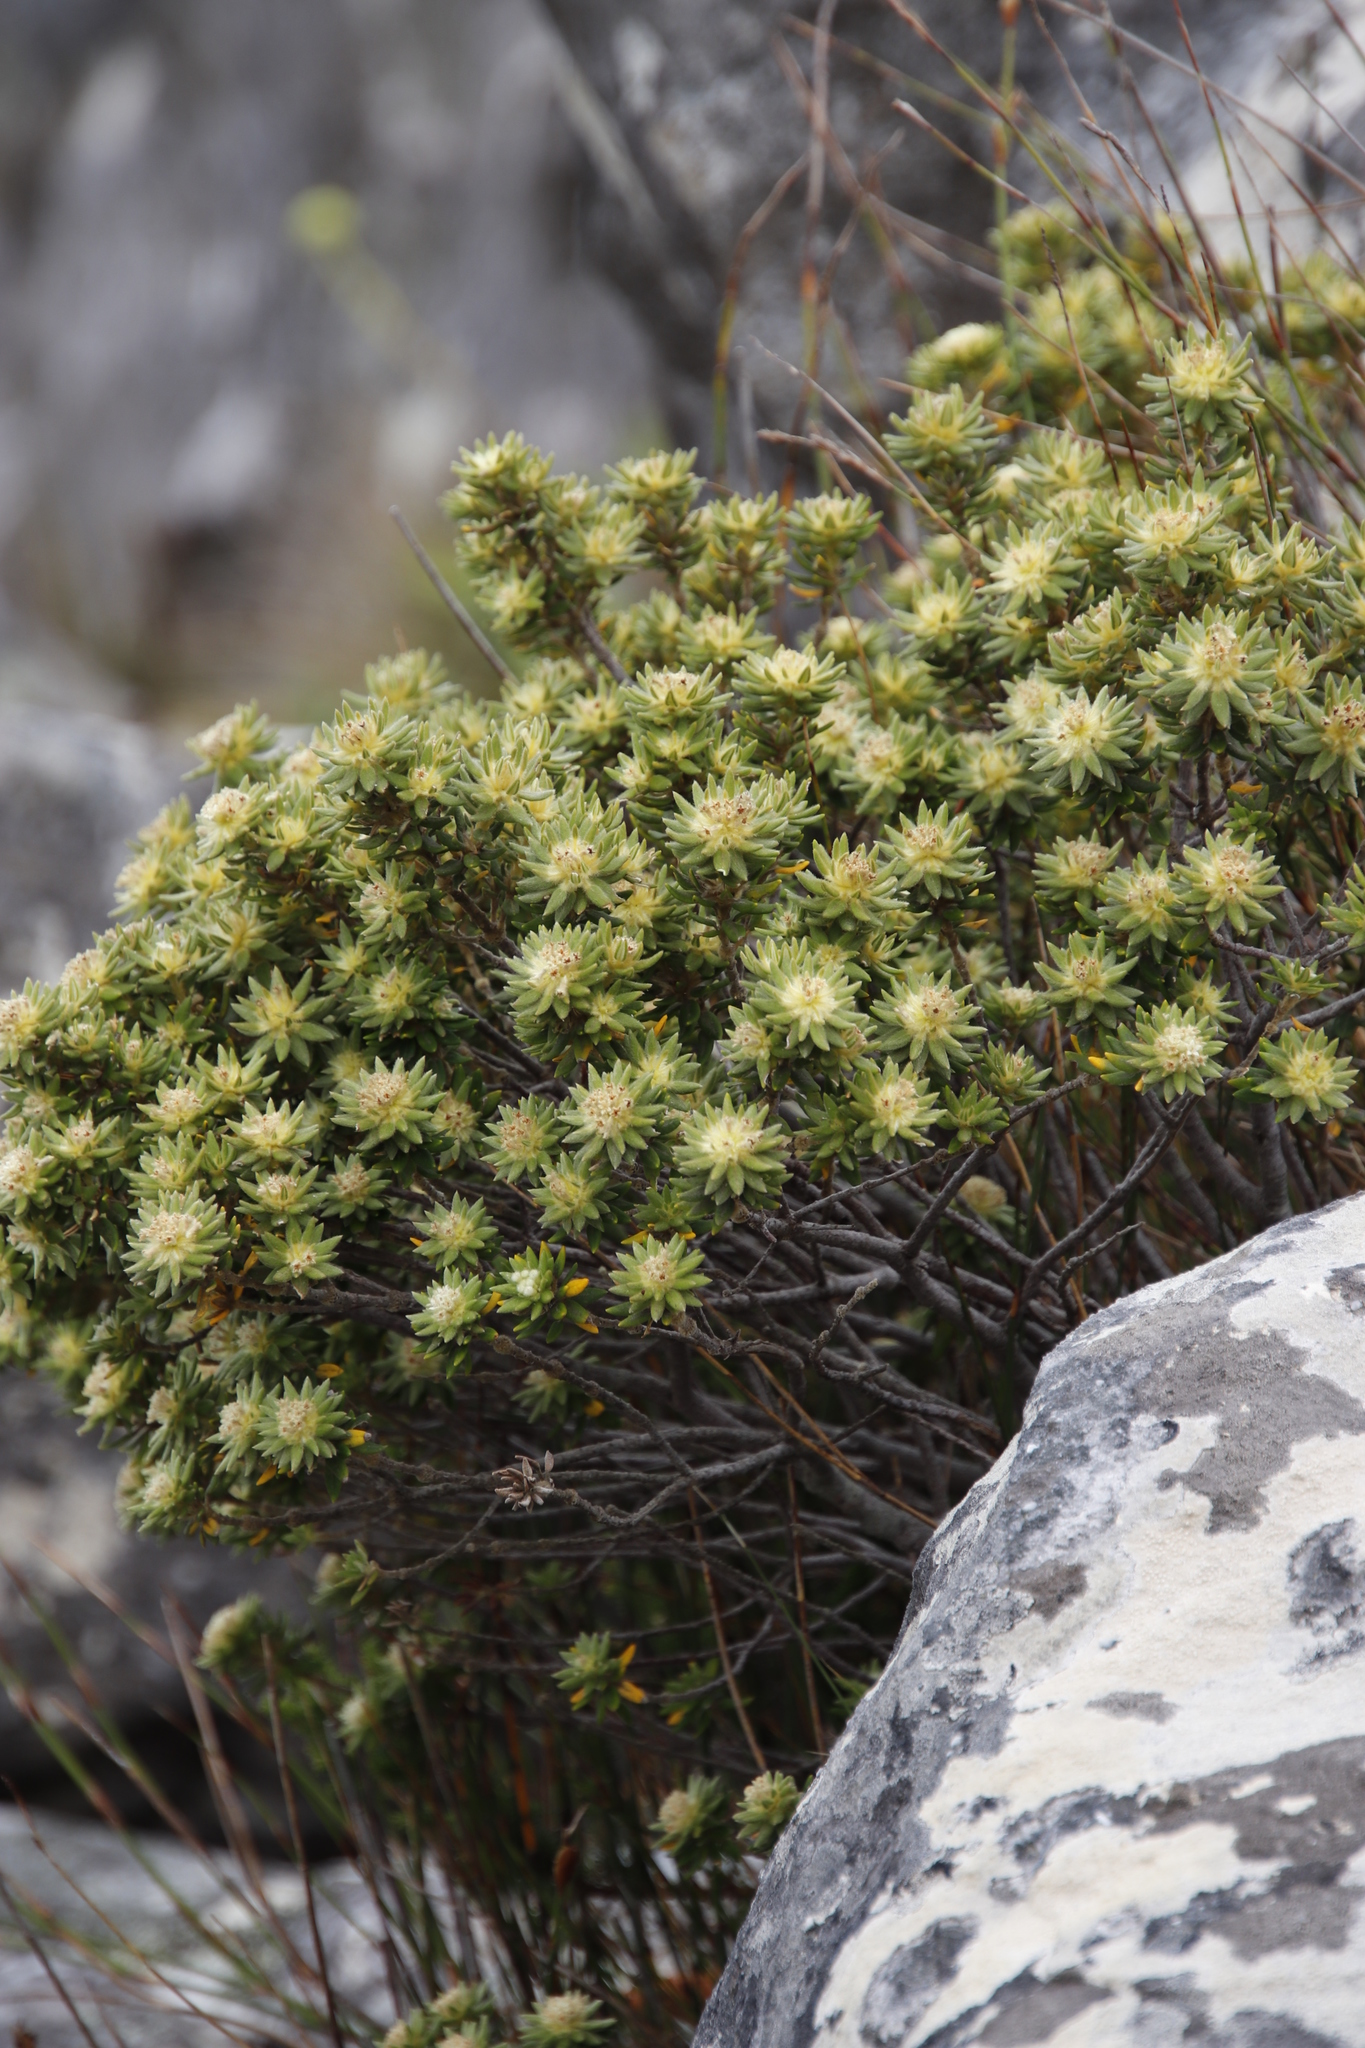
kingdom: Plantae
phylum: Tracheophyta
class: Magnoliopsida
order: Rosales
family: Rhamnaceae
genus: Phylica
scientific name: Phylica dioica
